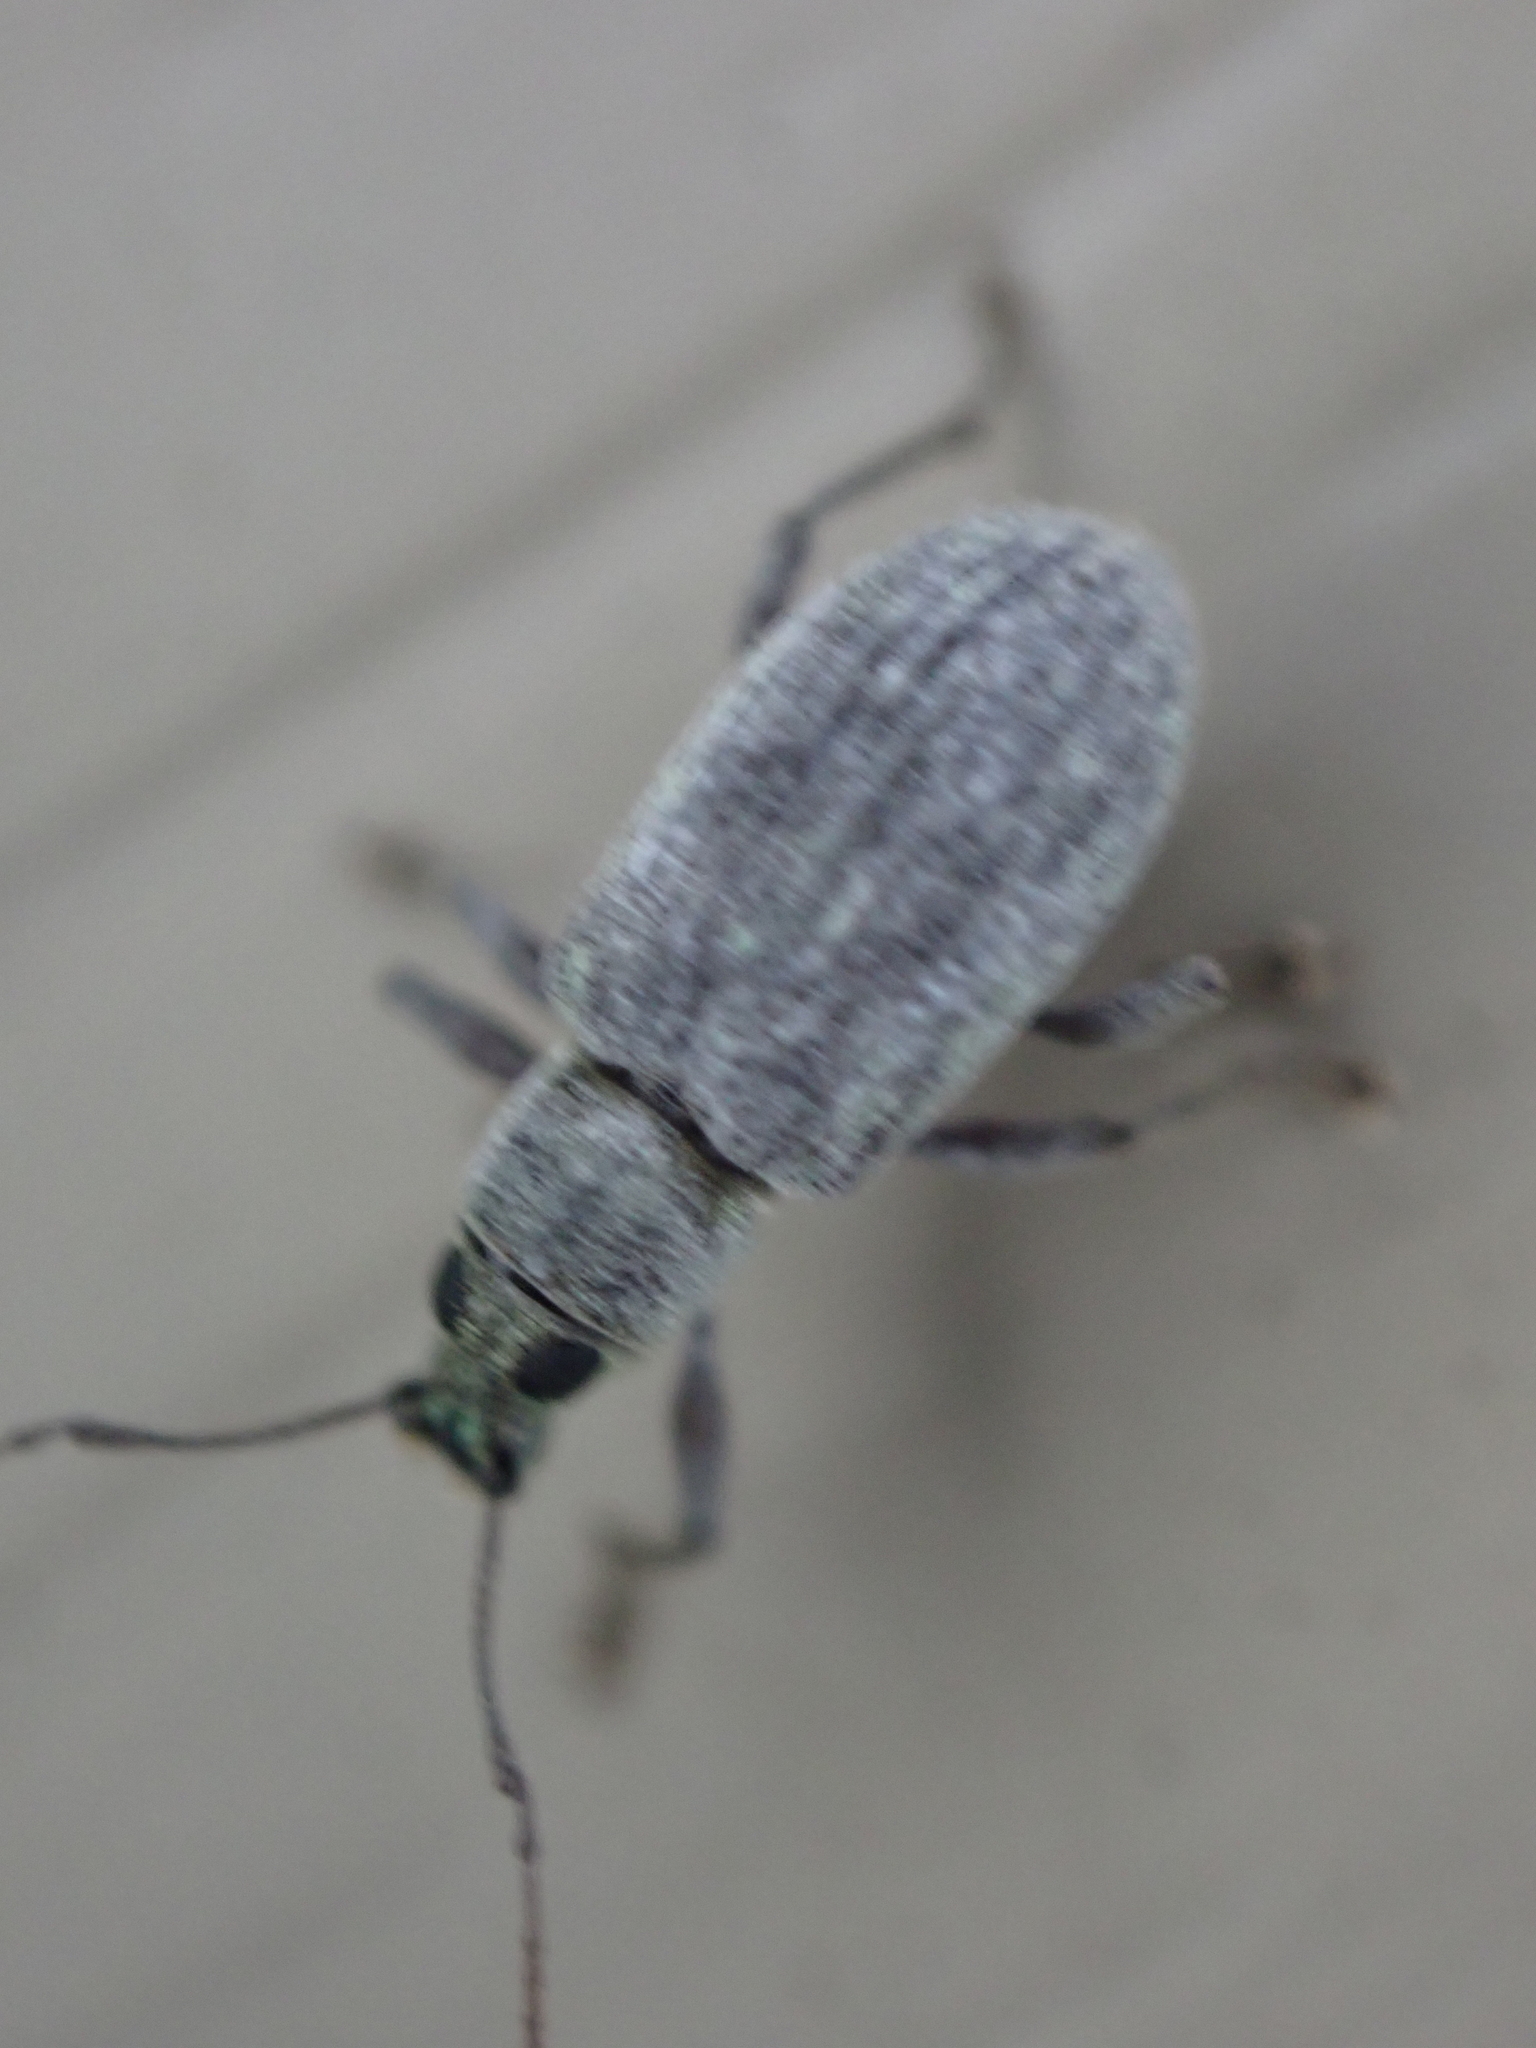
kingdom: Animalia
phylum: Arthropoda
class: Insecta
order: Coleoptera
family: Curculionidae
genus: Cyrtepistomus
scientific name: Cyrtepistomus castaneus
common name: Weevil
